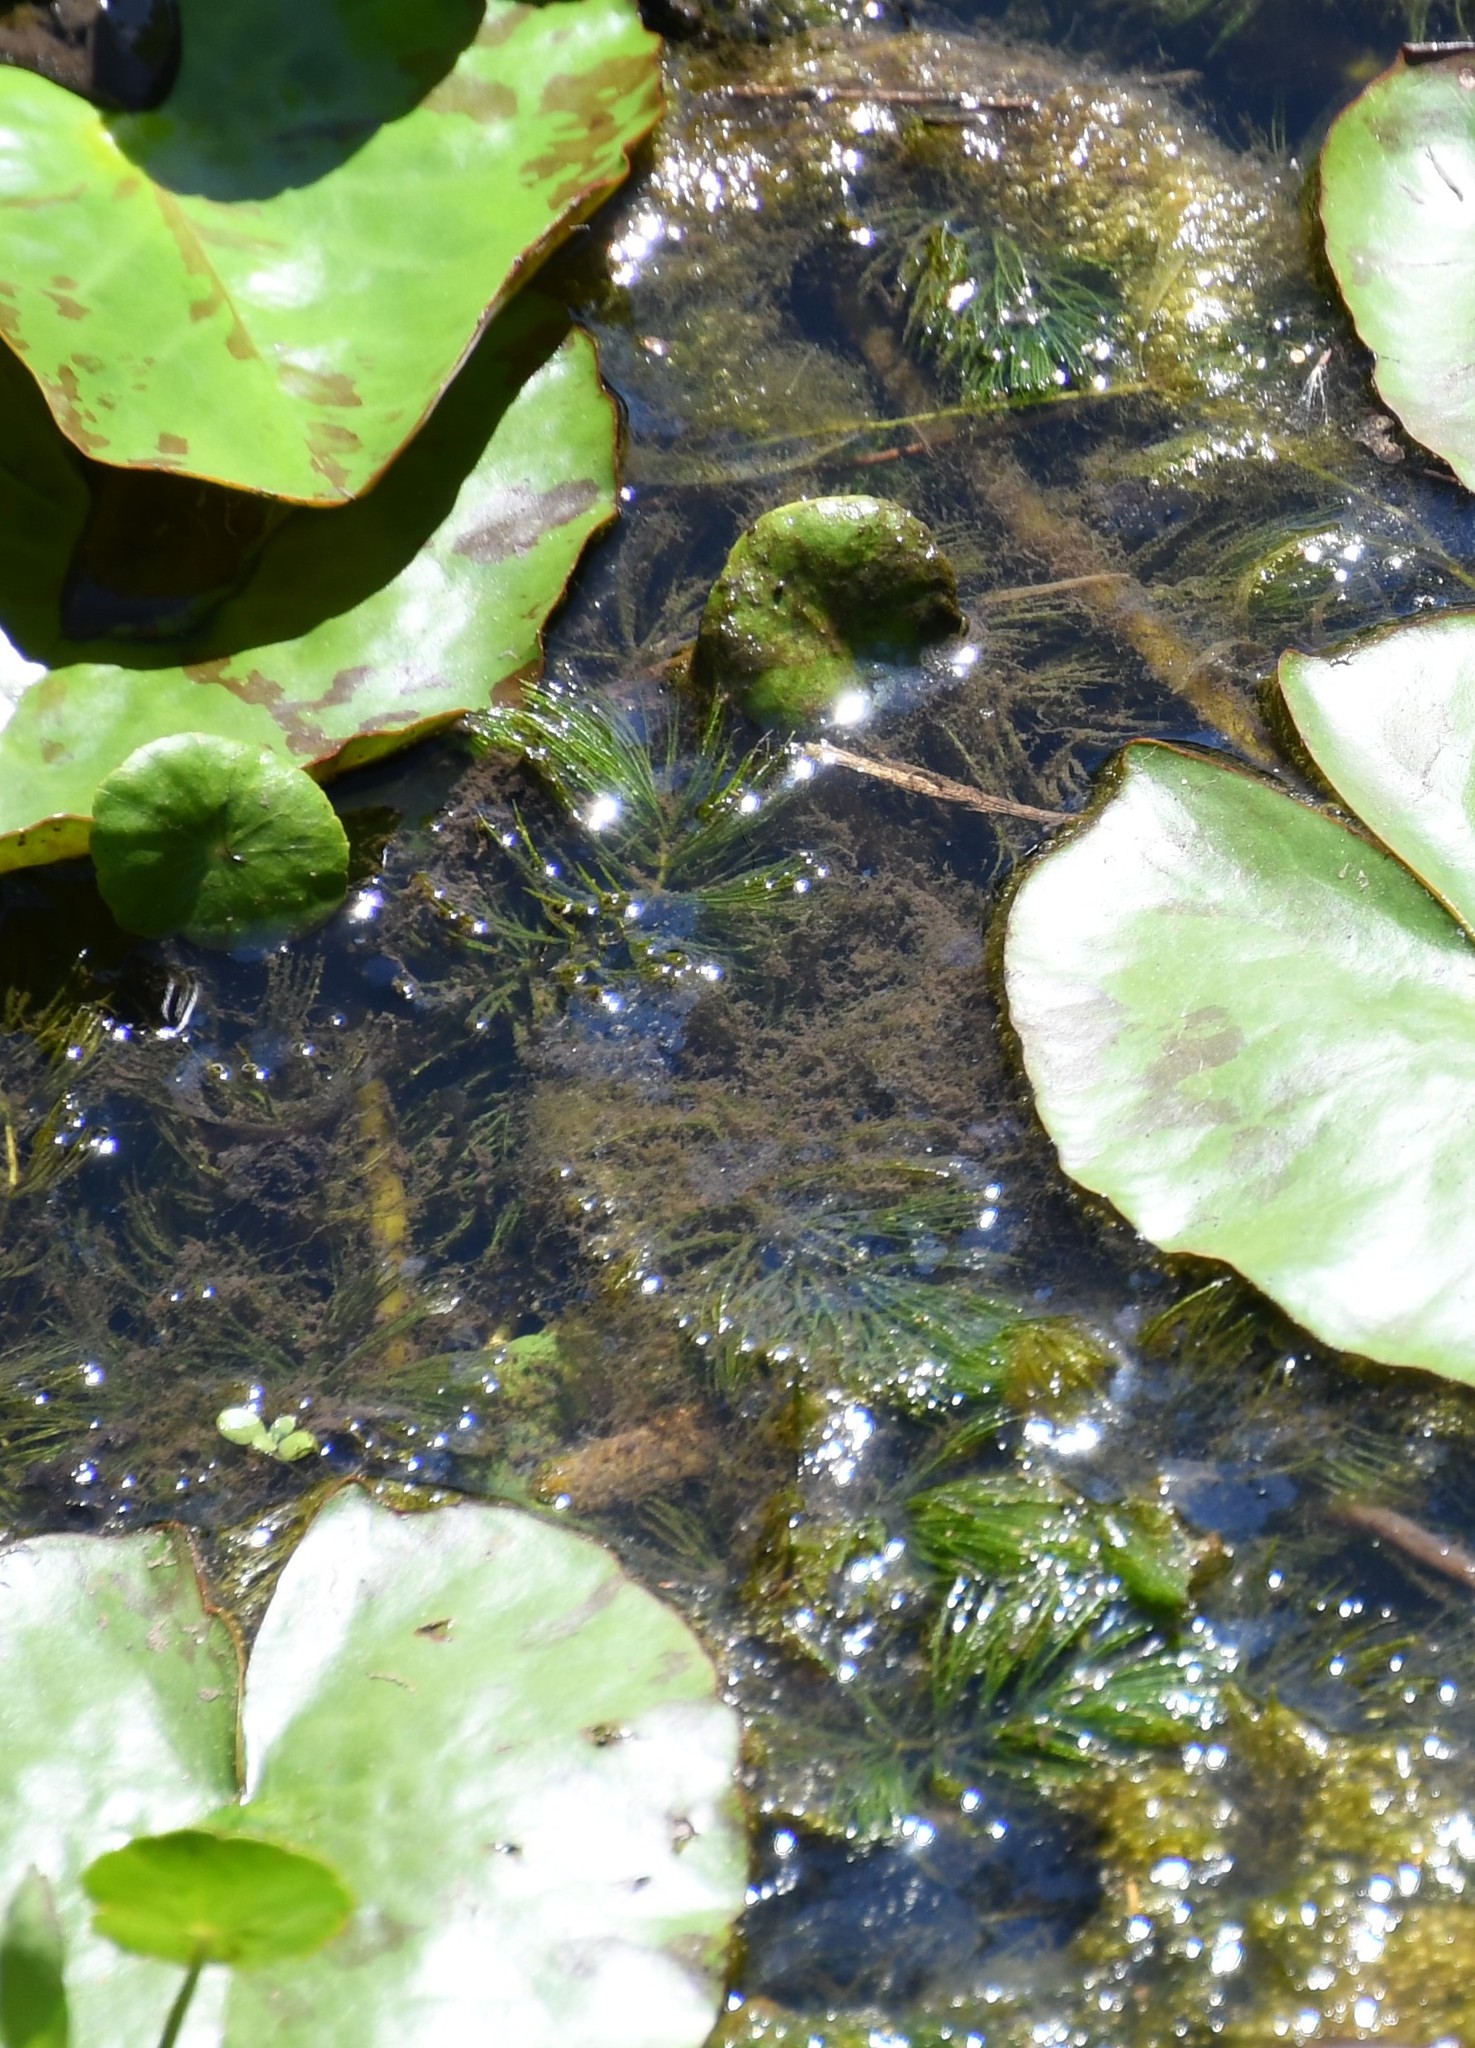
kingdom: Plantae
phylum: Tracheophyta
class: Magnoliopsida
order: Ceratophyllales
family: Ceratophyllaceae
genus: Ceratophyllum
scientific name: Ceratophyllum demersum
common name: Rigid hornwort
